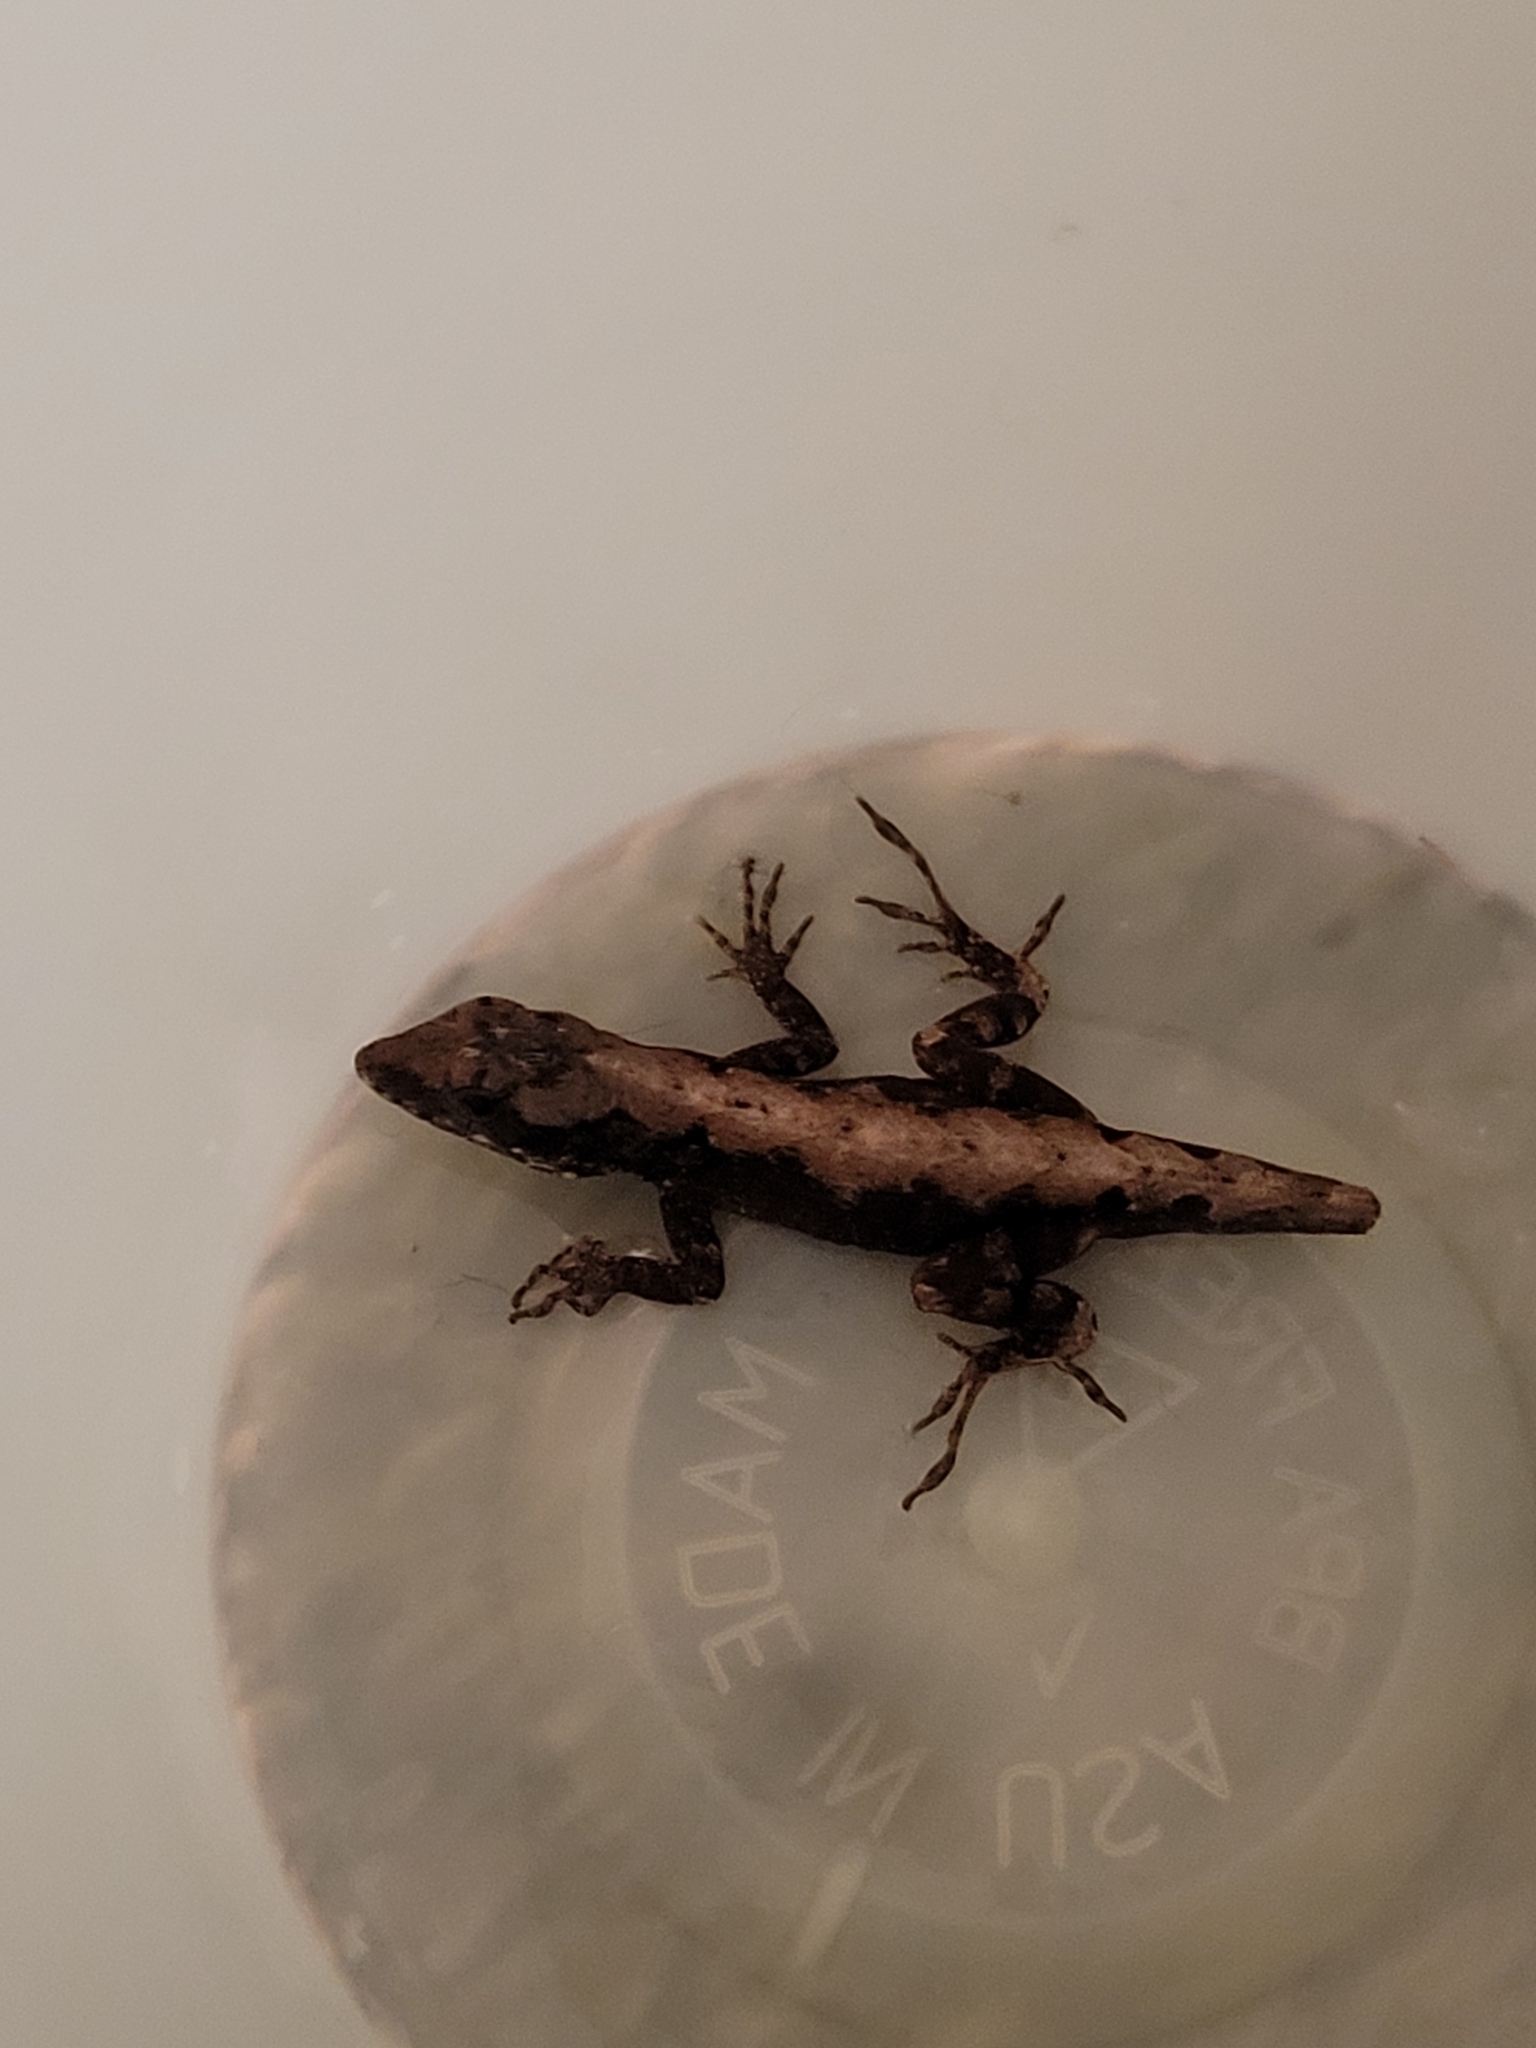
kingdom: Animalia
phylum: Chordata
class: Squamata
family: Dactyloidae
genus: Anolis
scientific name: Anolis sagrei
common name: Brown anole
